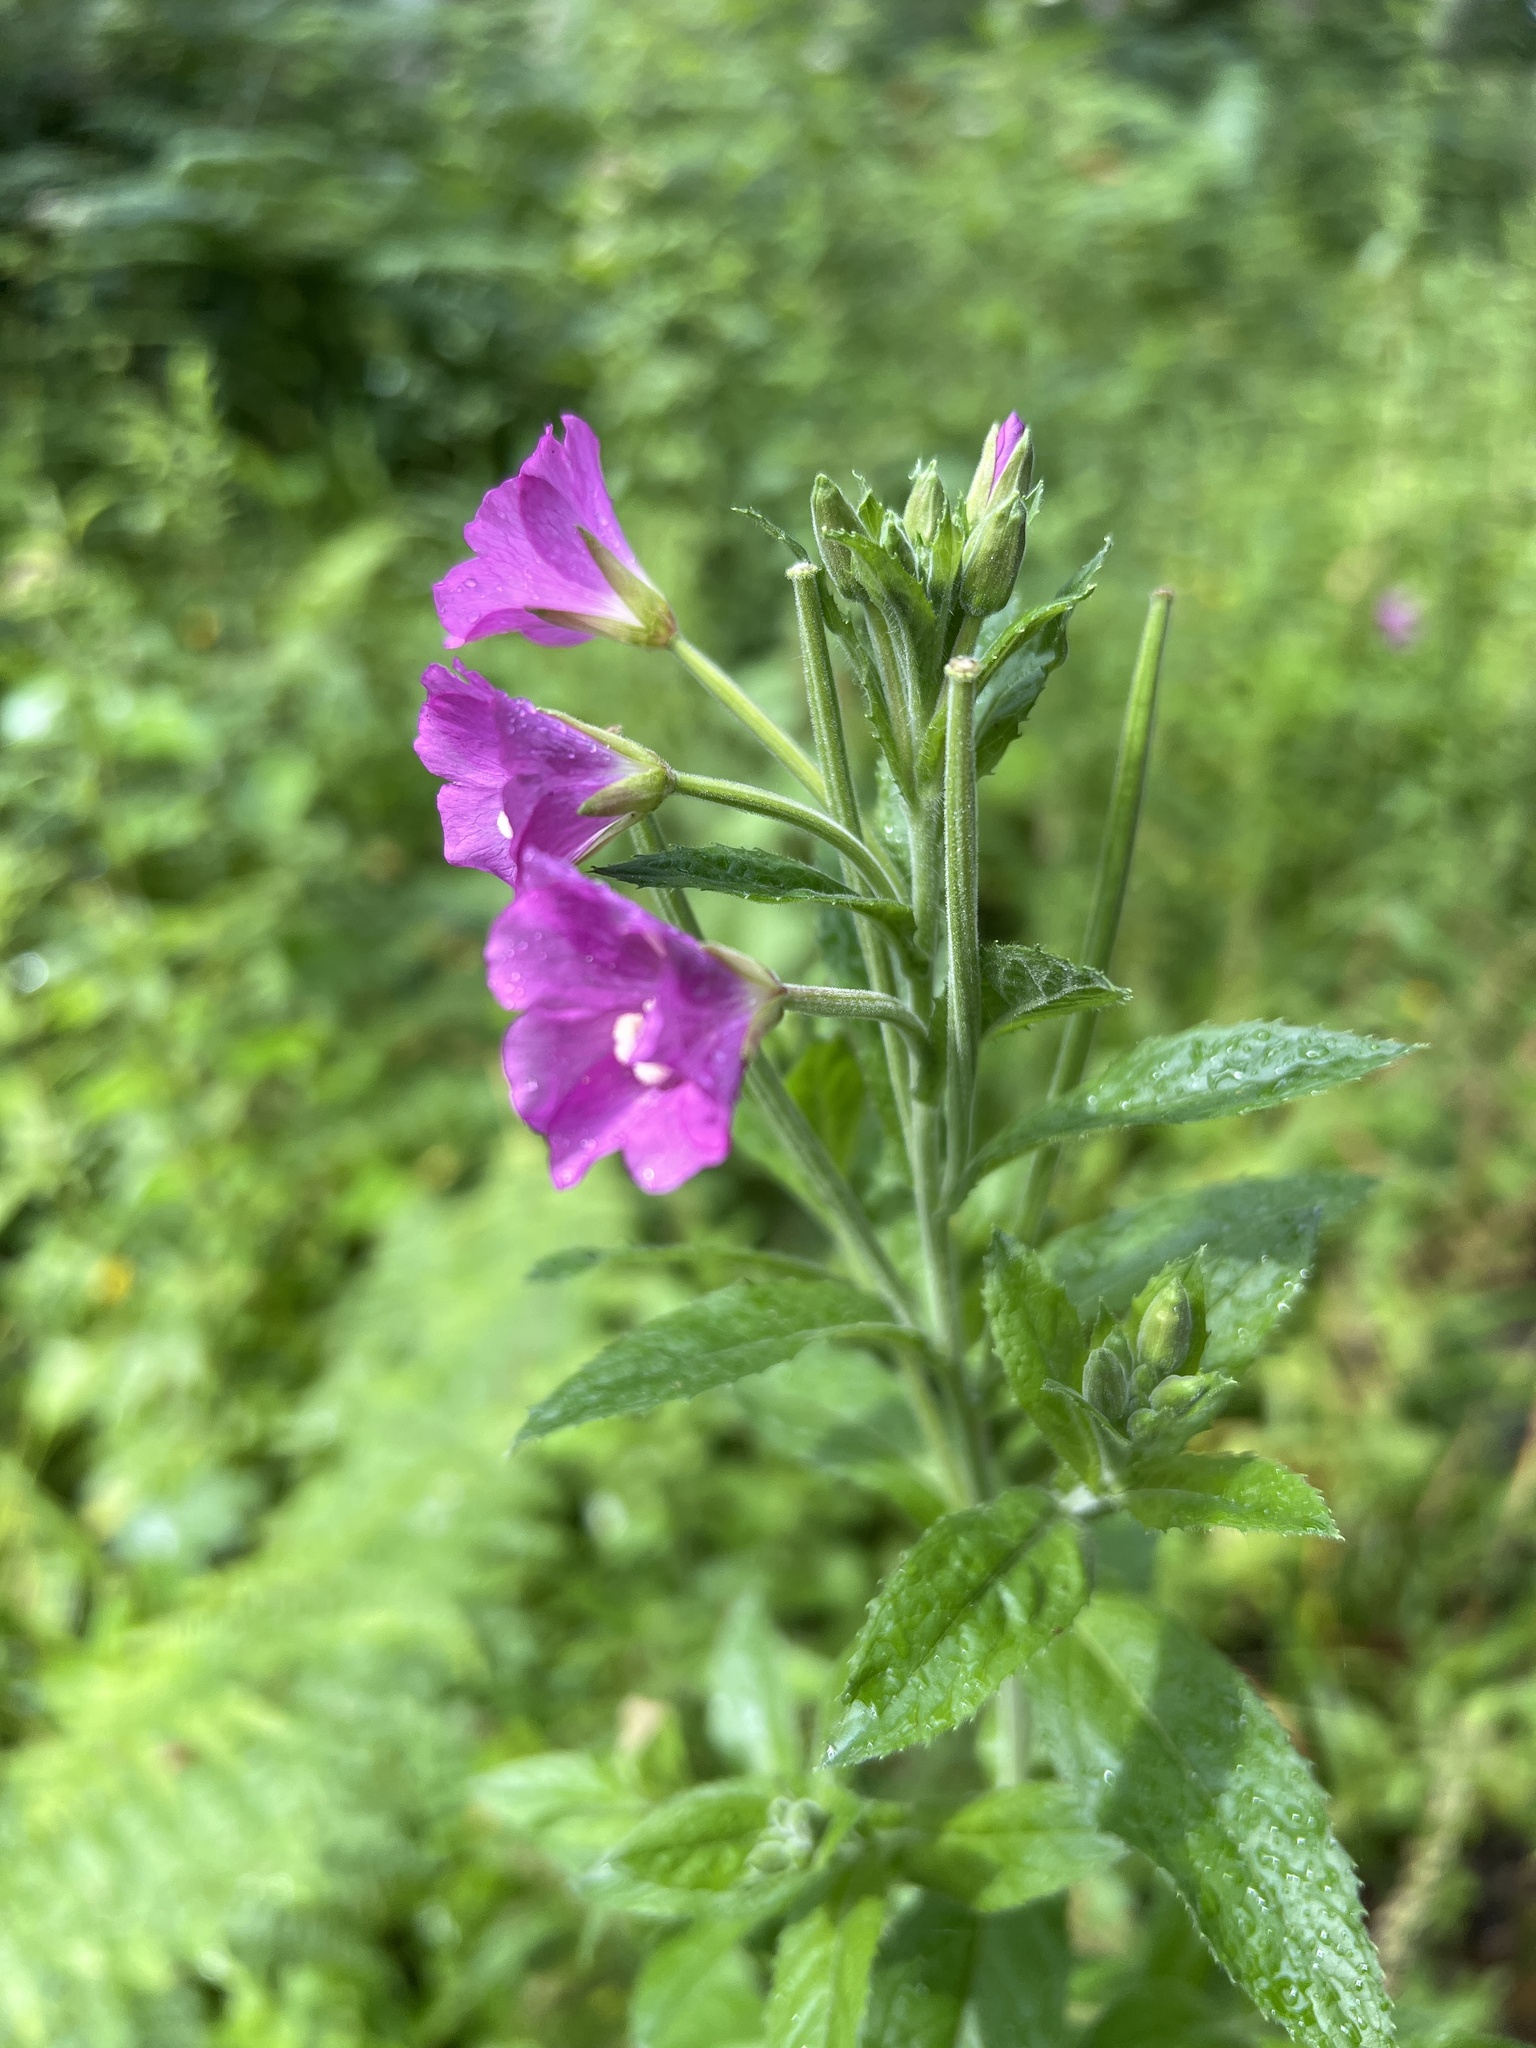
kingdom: Plantae
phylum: Tracheophyta
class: Magnoliopsida
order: Myrtales
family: Onagraceae
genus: Epilobium
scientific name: Epilobium hirsutum
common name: Great willowherb
